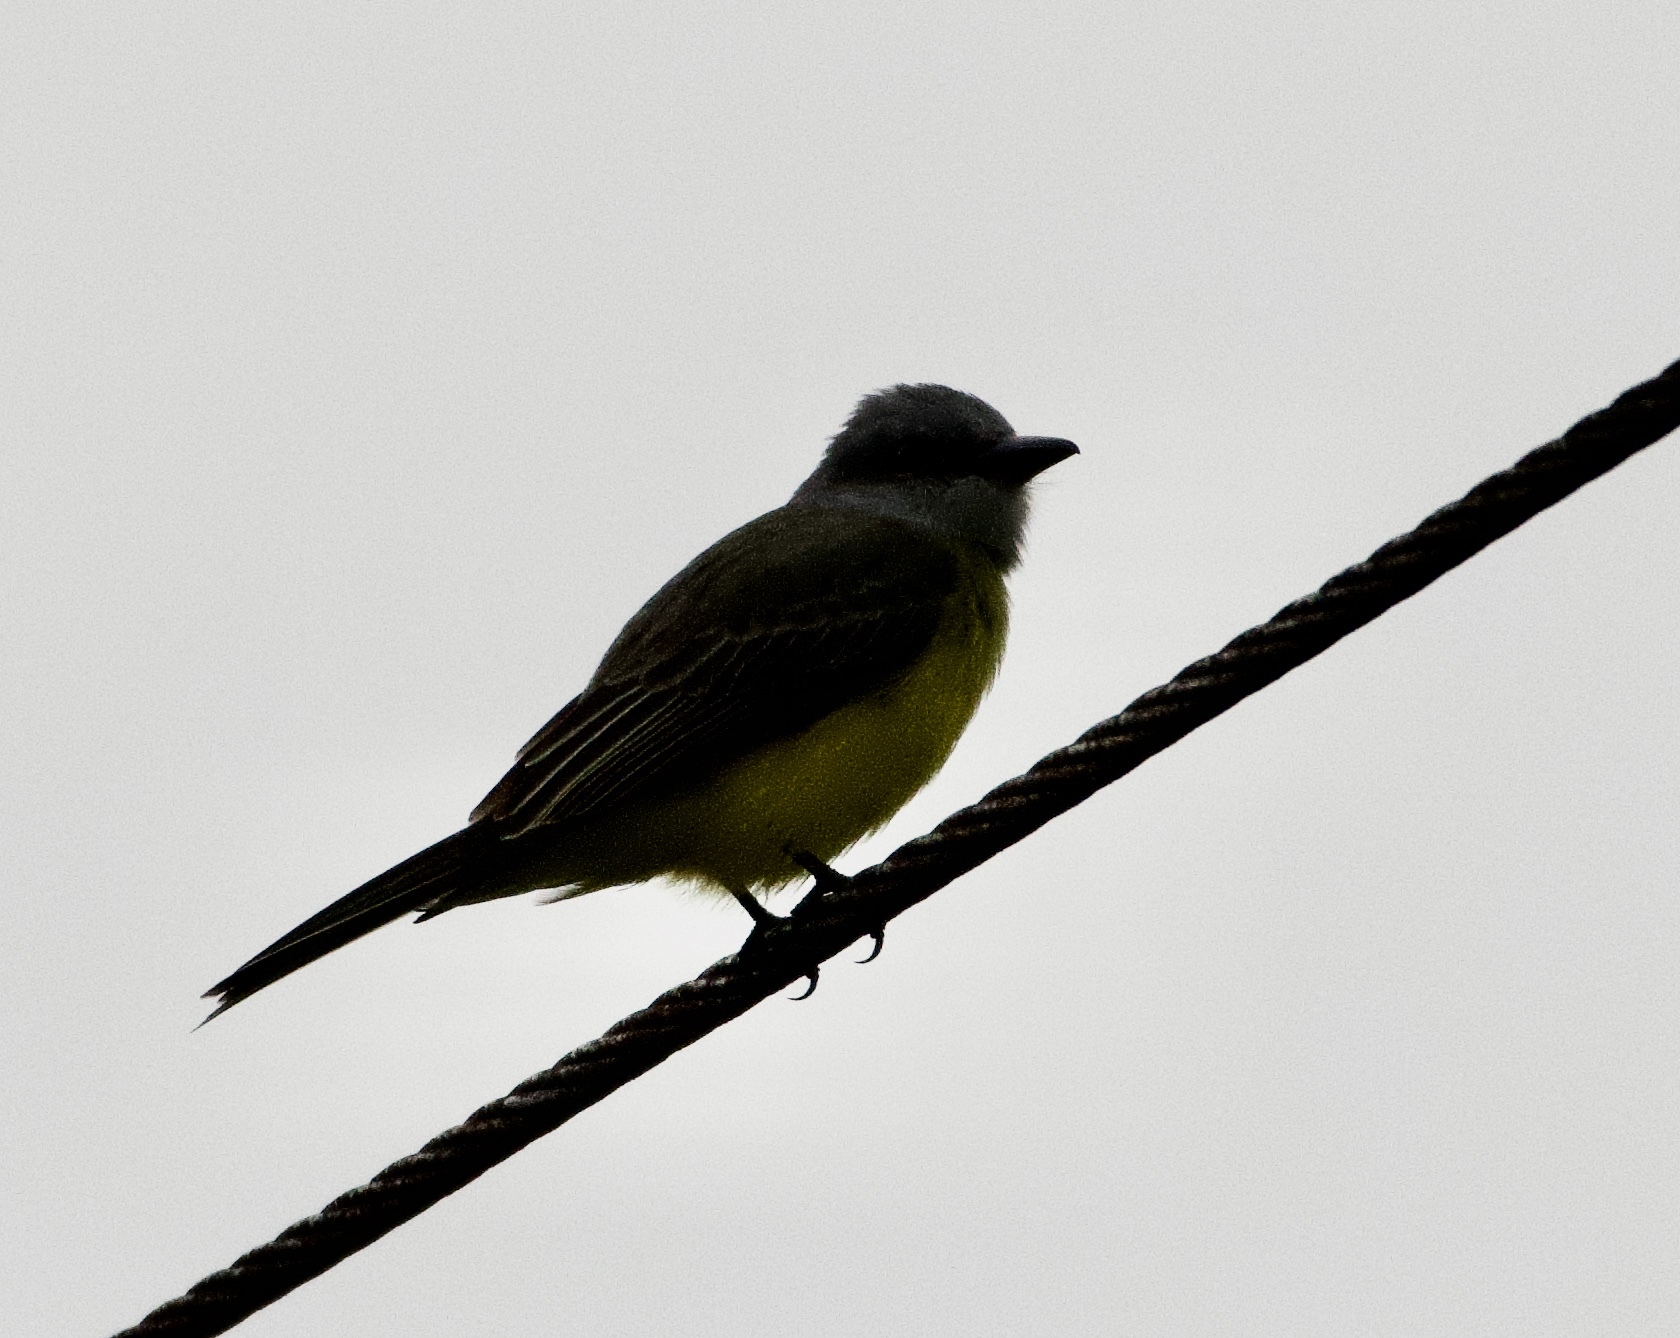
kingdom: Animalia
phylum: Chordata
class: Aves
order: Passeriformes
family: Tyrannidae
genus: Tyrannus
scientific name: Tyrannus melancholicus
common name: Tropical kingbird
